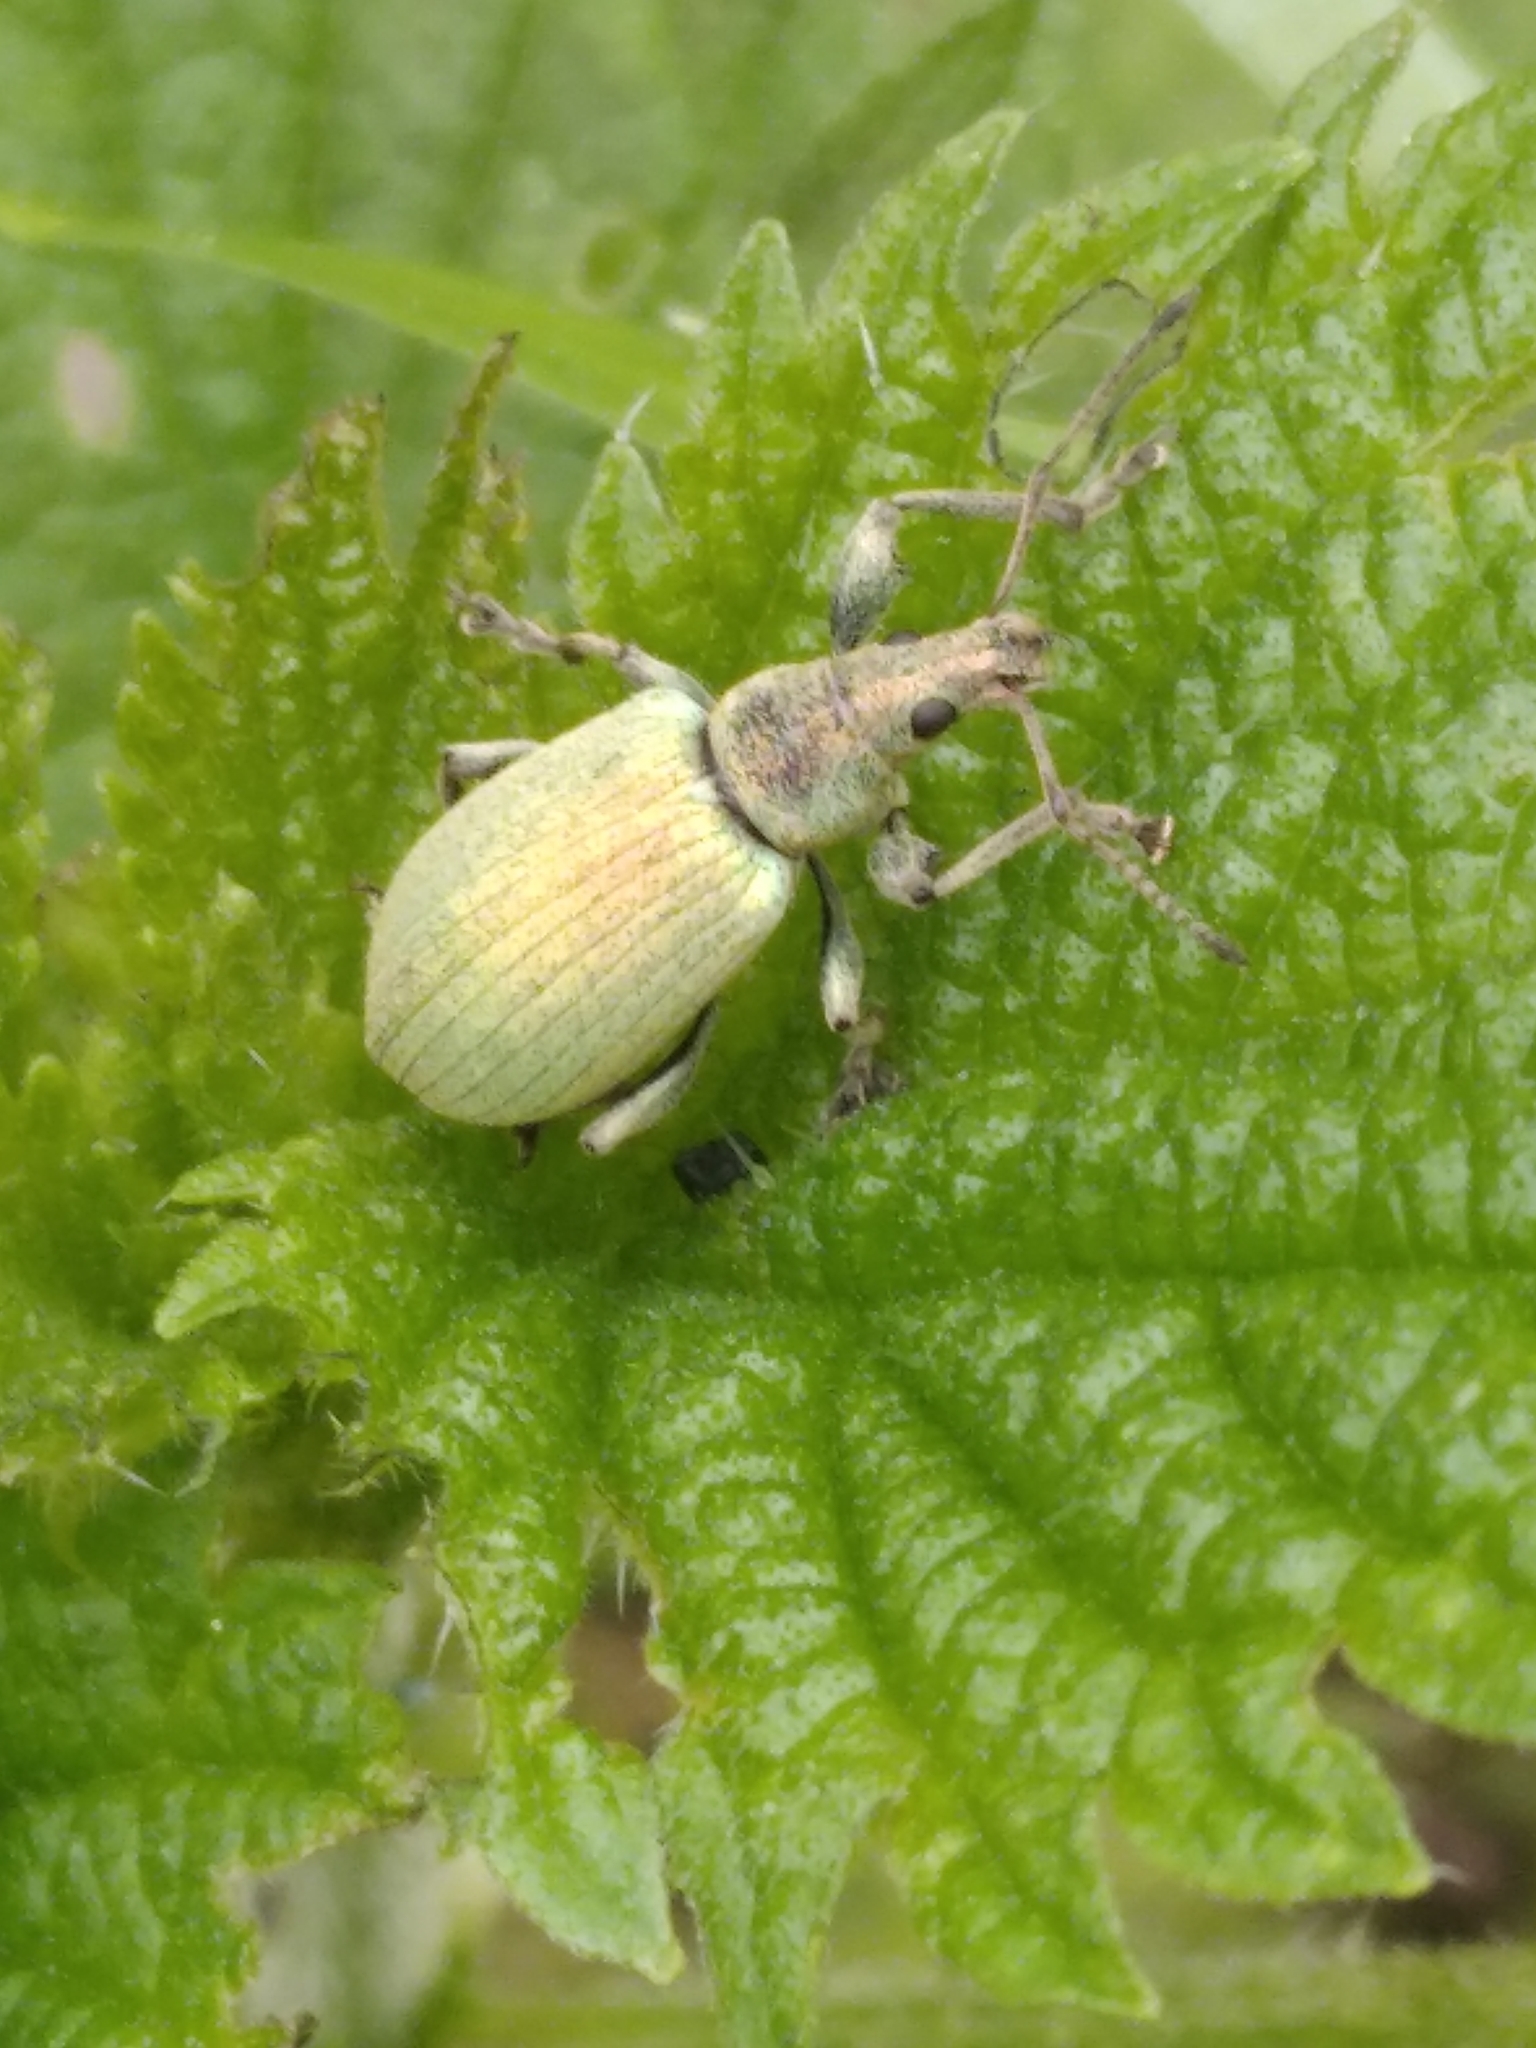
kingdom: Animalia
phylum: Arthropoda
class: Insecta
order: Coleoptera
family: Curculionidae
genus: Phyllobius
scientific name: Phyllobius pomaceus
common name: Green nettle weevil
